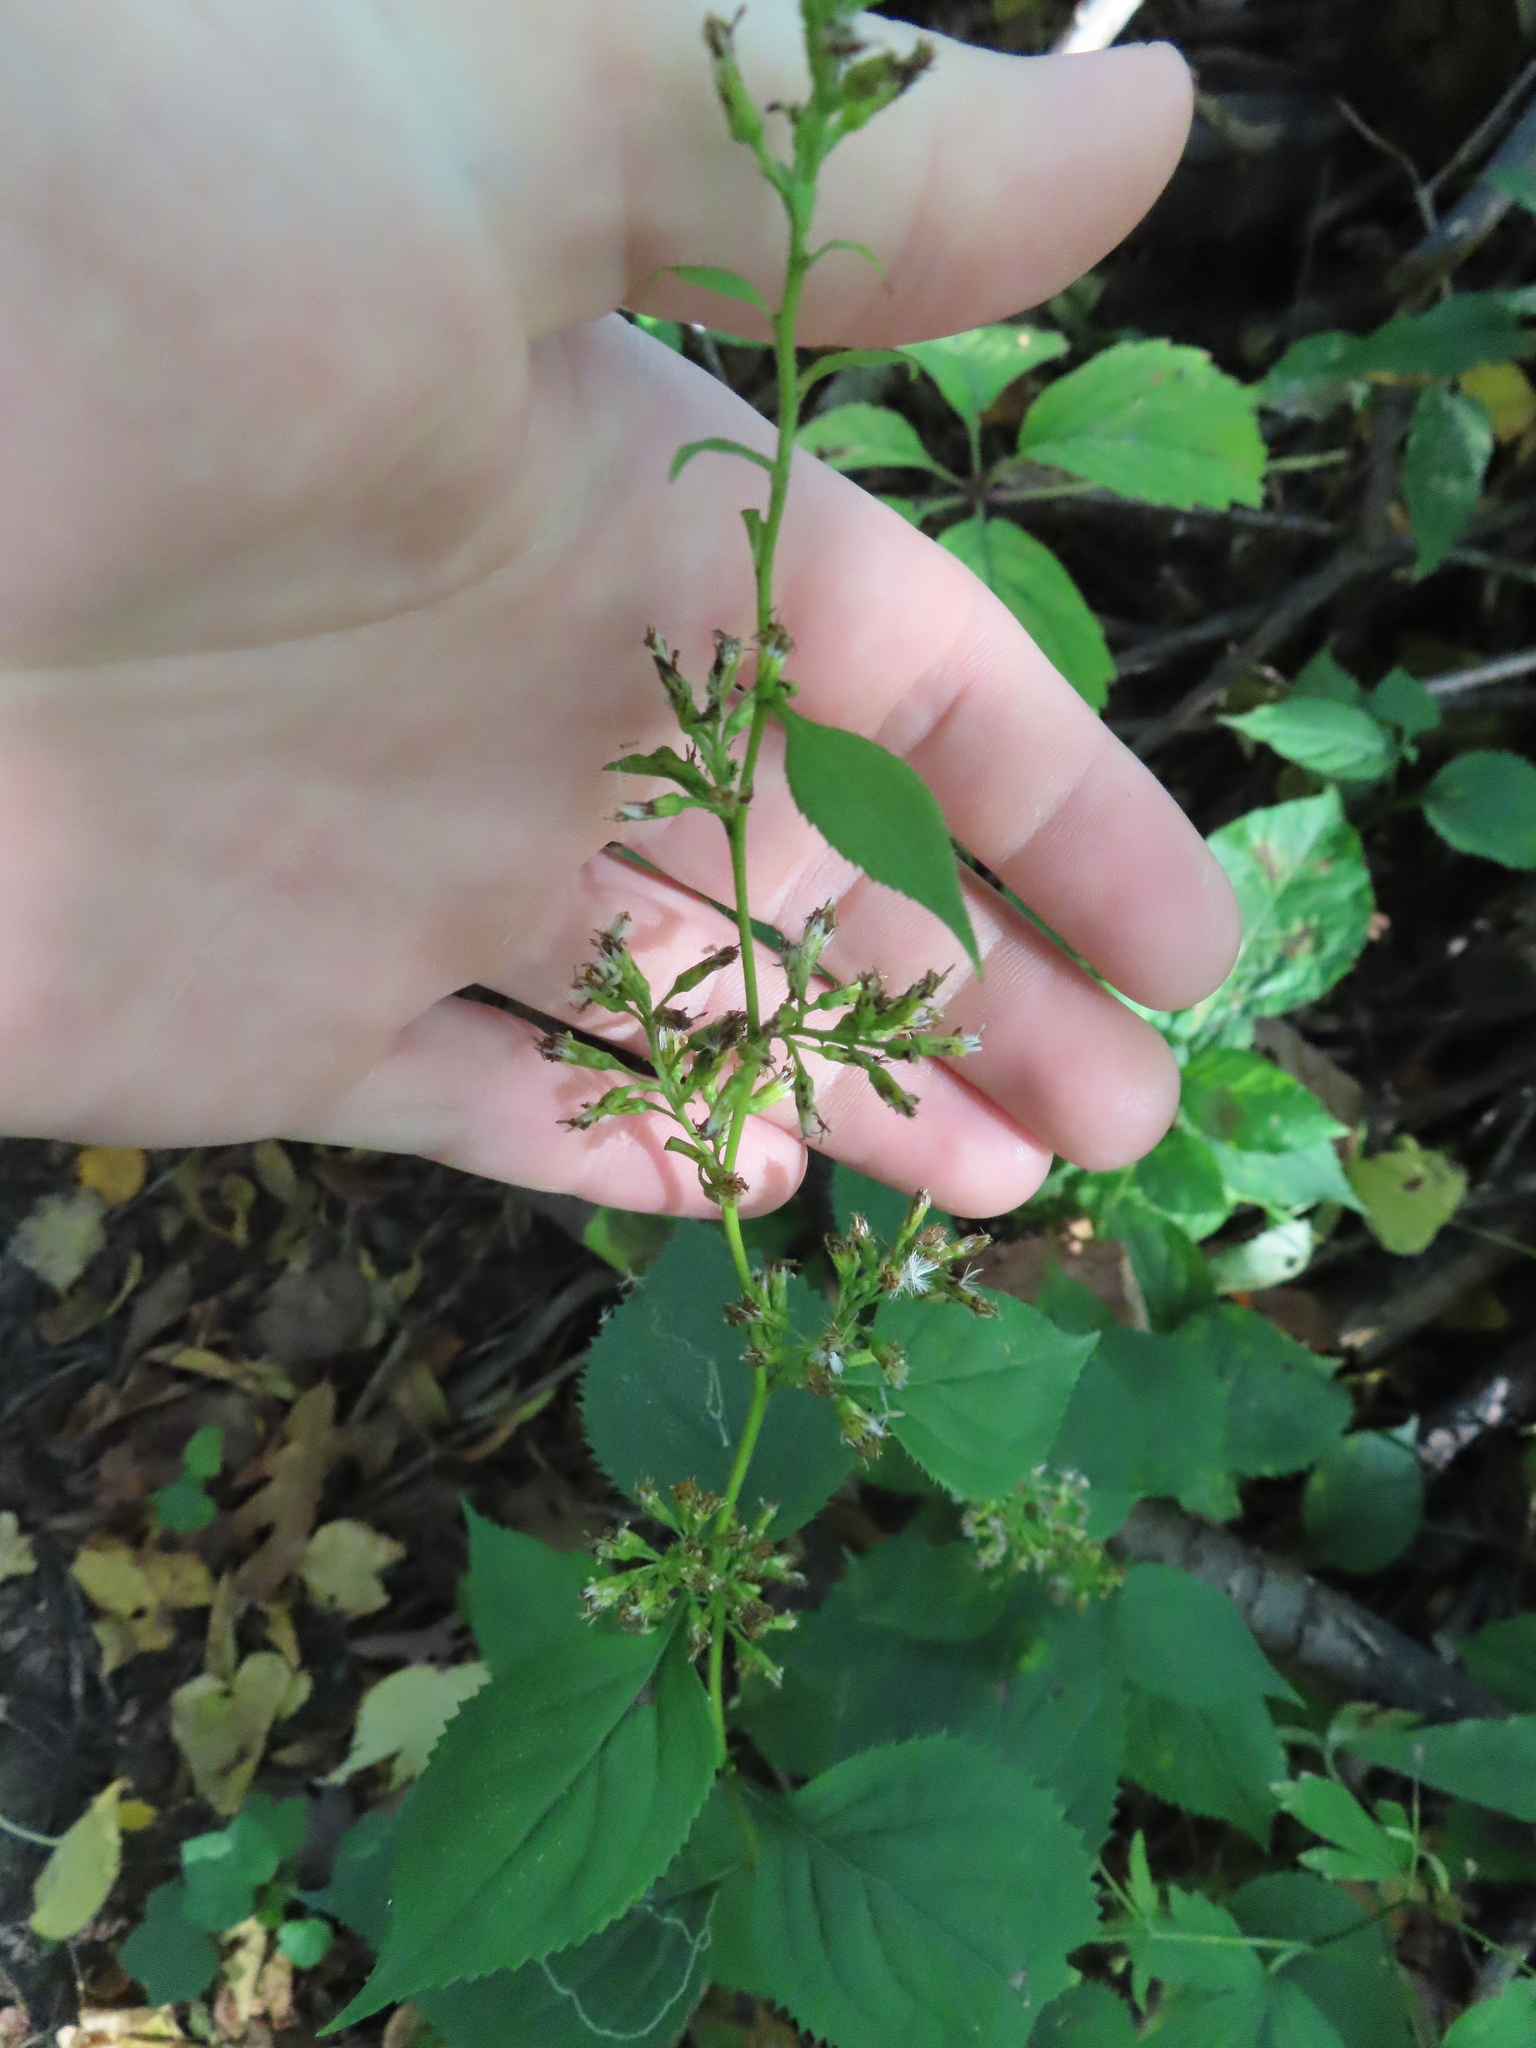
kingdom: Plantae
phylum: Tracheophyta
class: Magnoliopsida
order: Asterales
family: Asteraceae
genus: Solidago
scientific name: Solidago flexicaulis
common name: Zig-zag goldenrod
